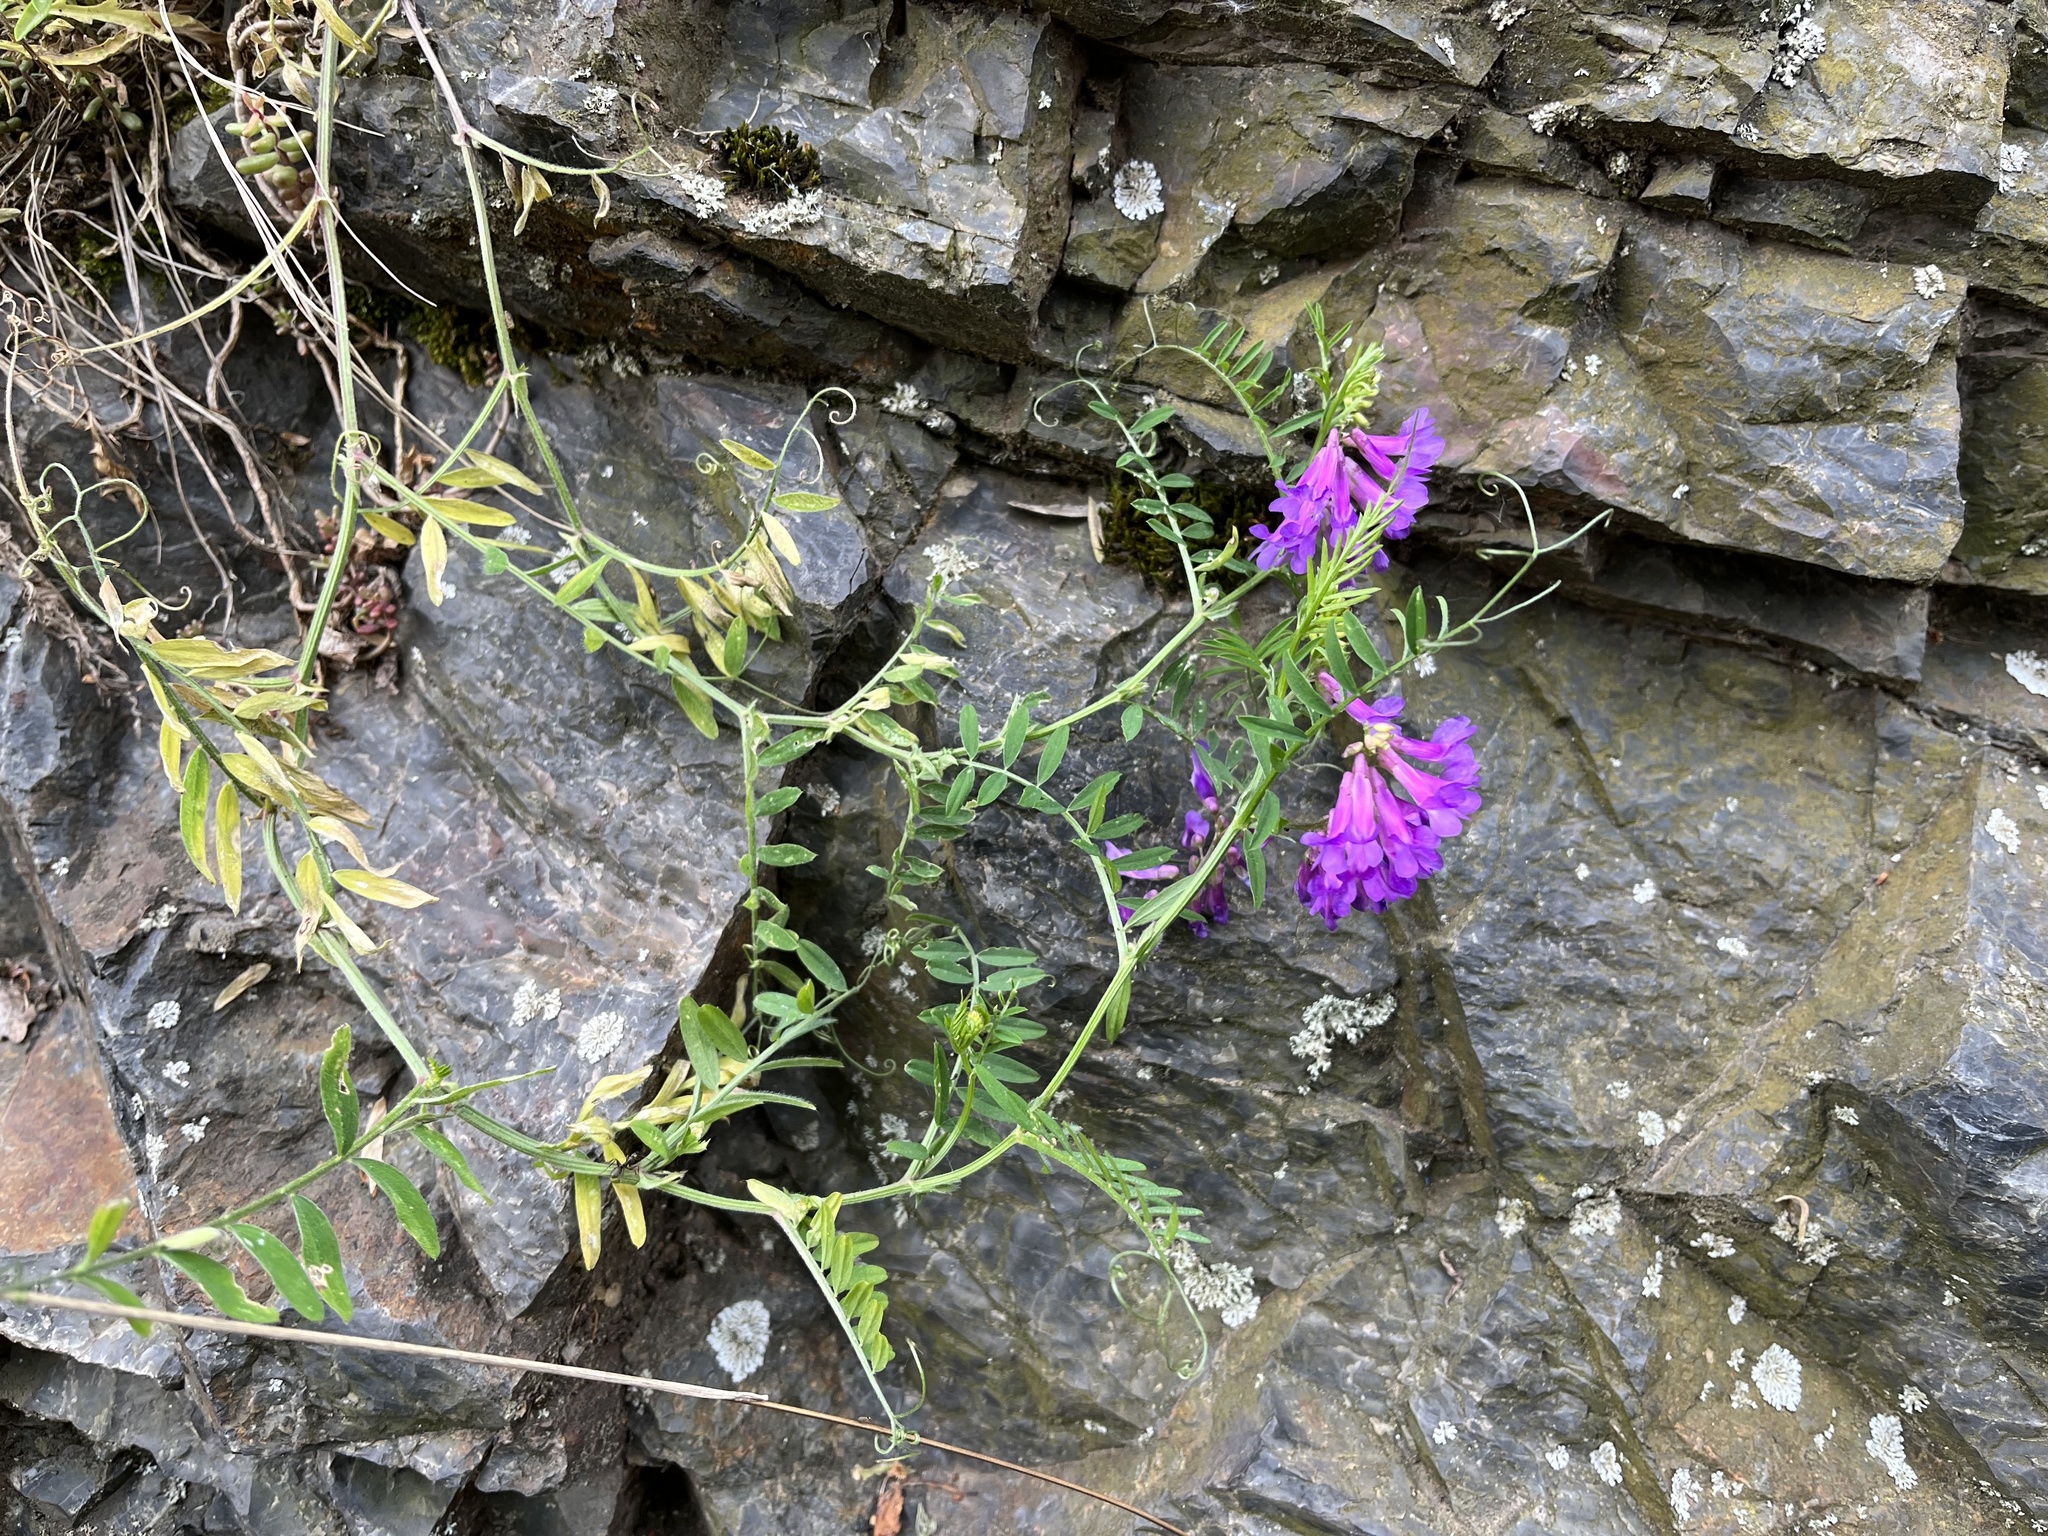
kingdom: Plantae
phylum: Tracheophyta
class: Magnoliopsida
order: Fabales
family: Fabaceae
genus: Vicia
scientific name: Vicia villosa
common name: Fodder vetch
